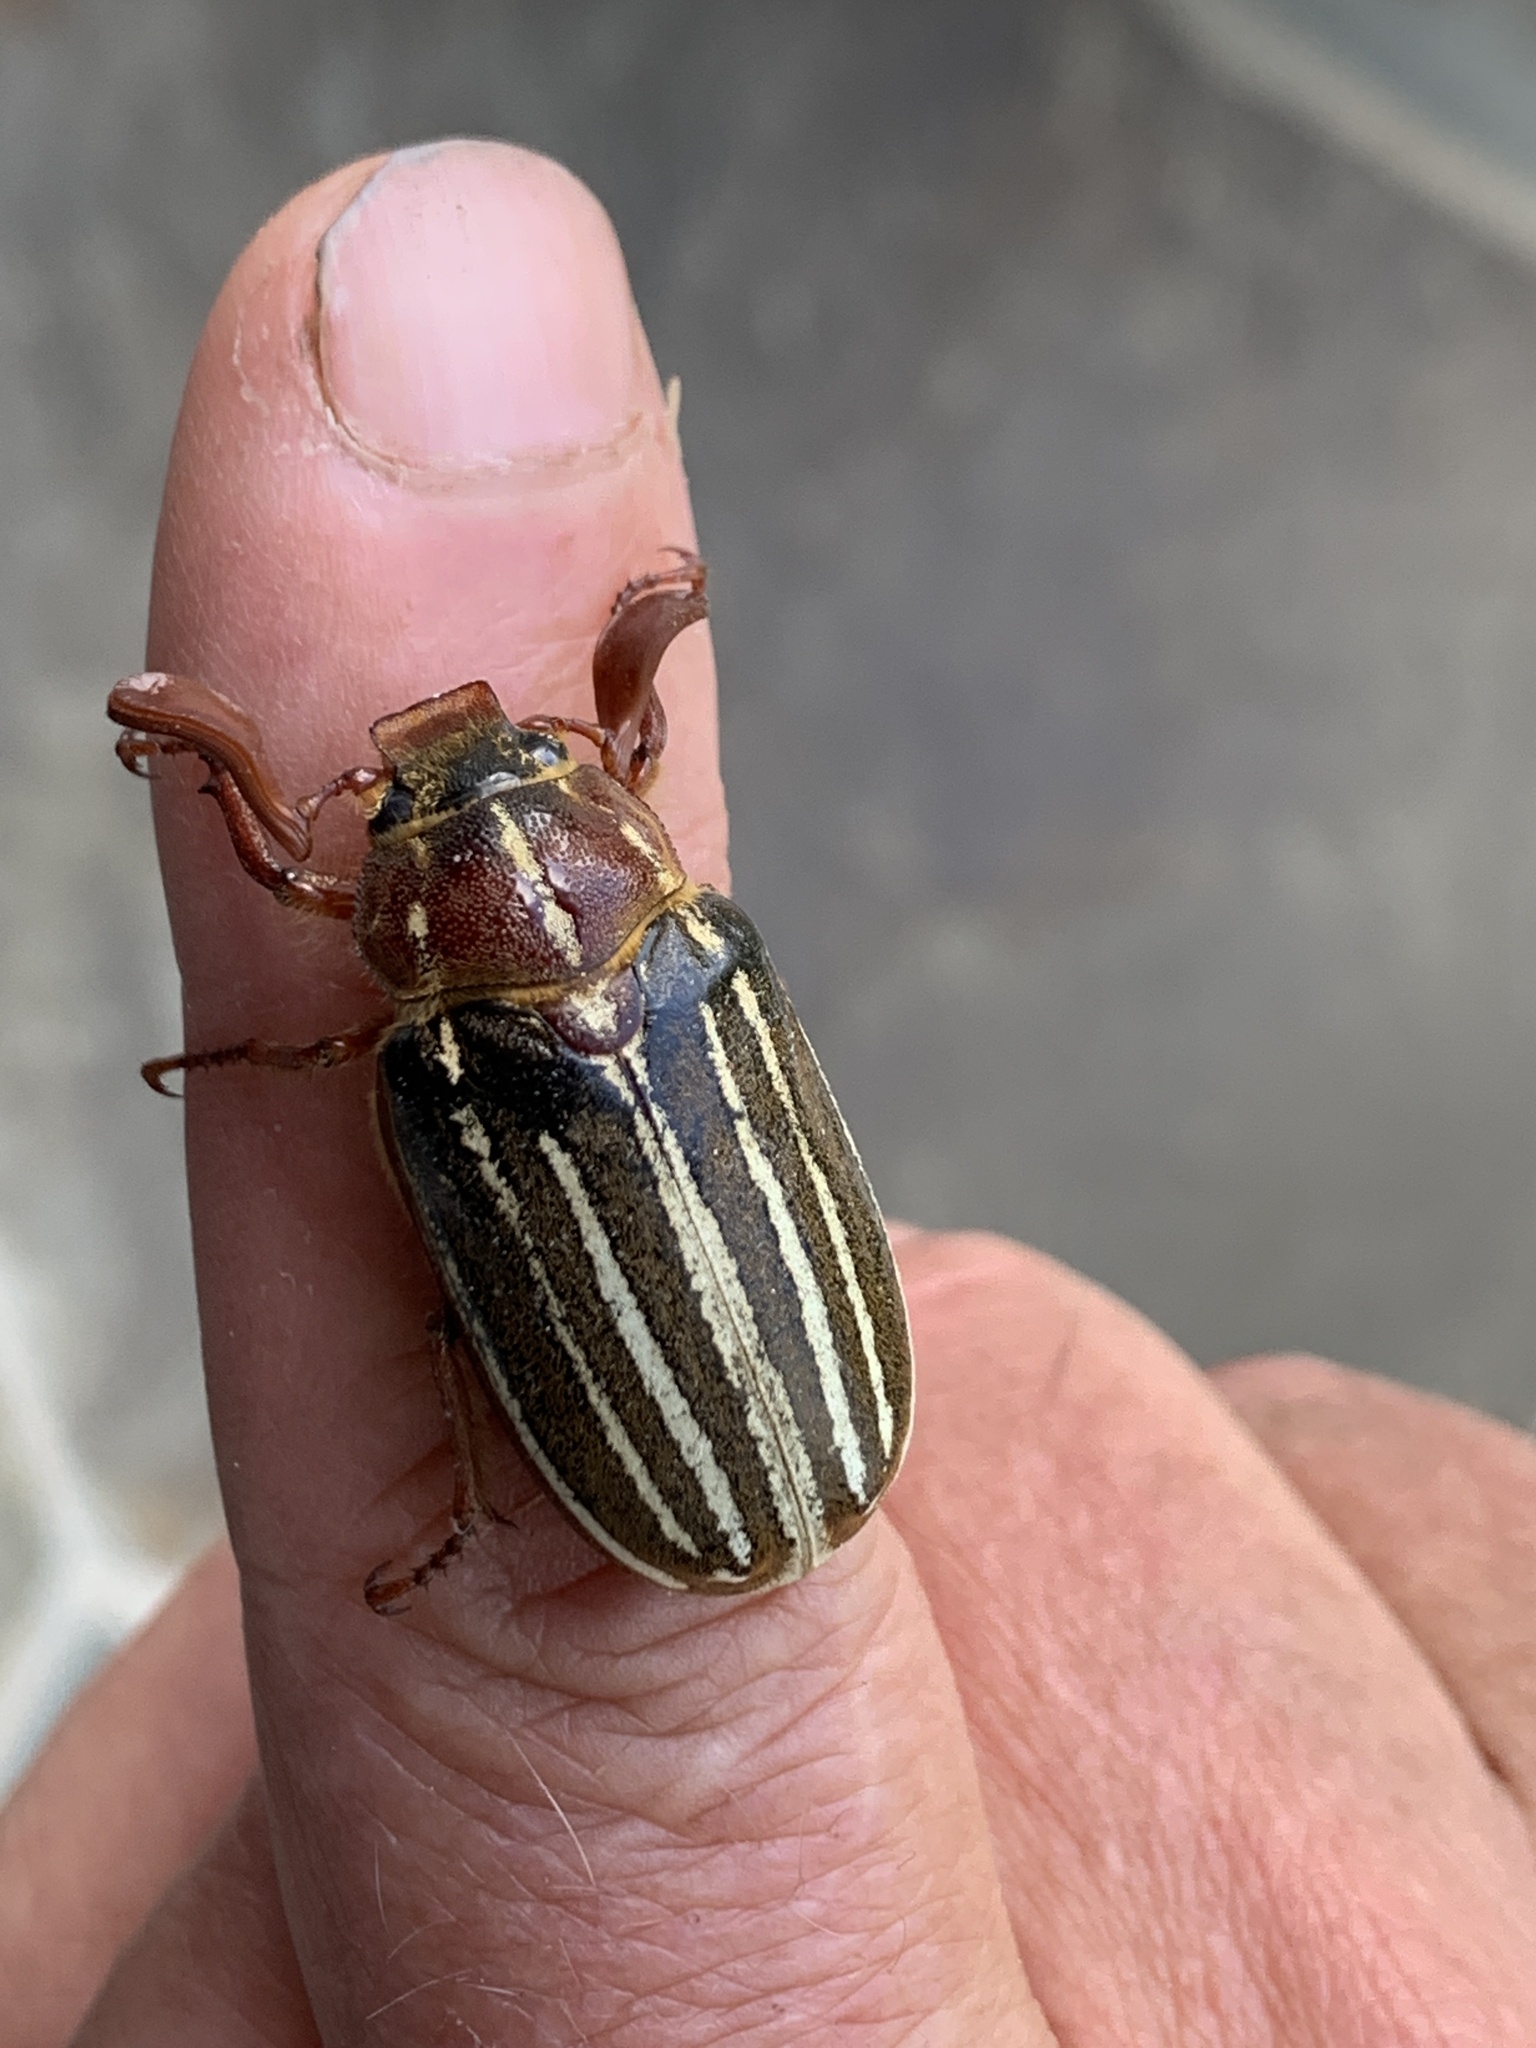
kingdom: Animalia
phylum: Arthropoda
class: Insecta
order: Coleoptera
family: Scarabaeidae
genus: Polyphylla
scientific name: Polyphylla crinita
